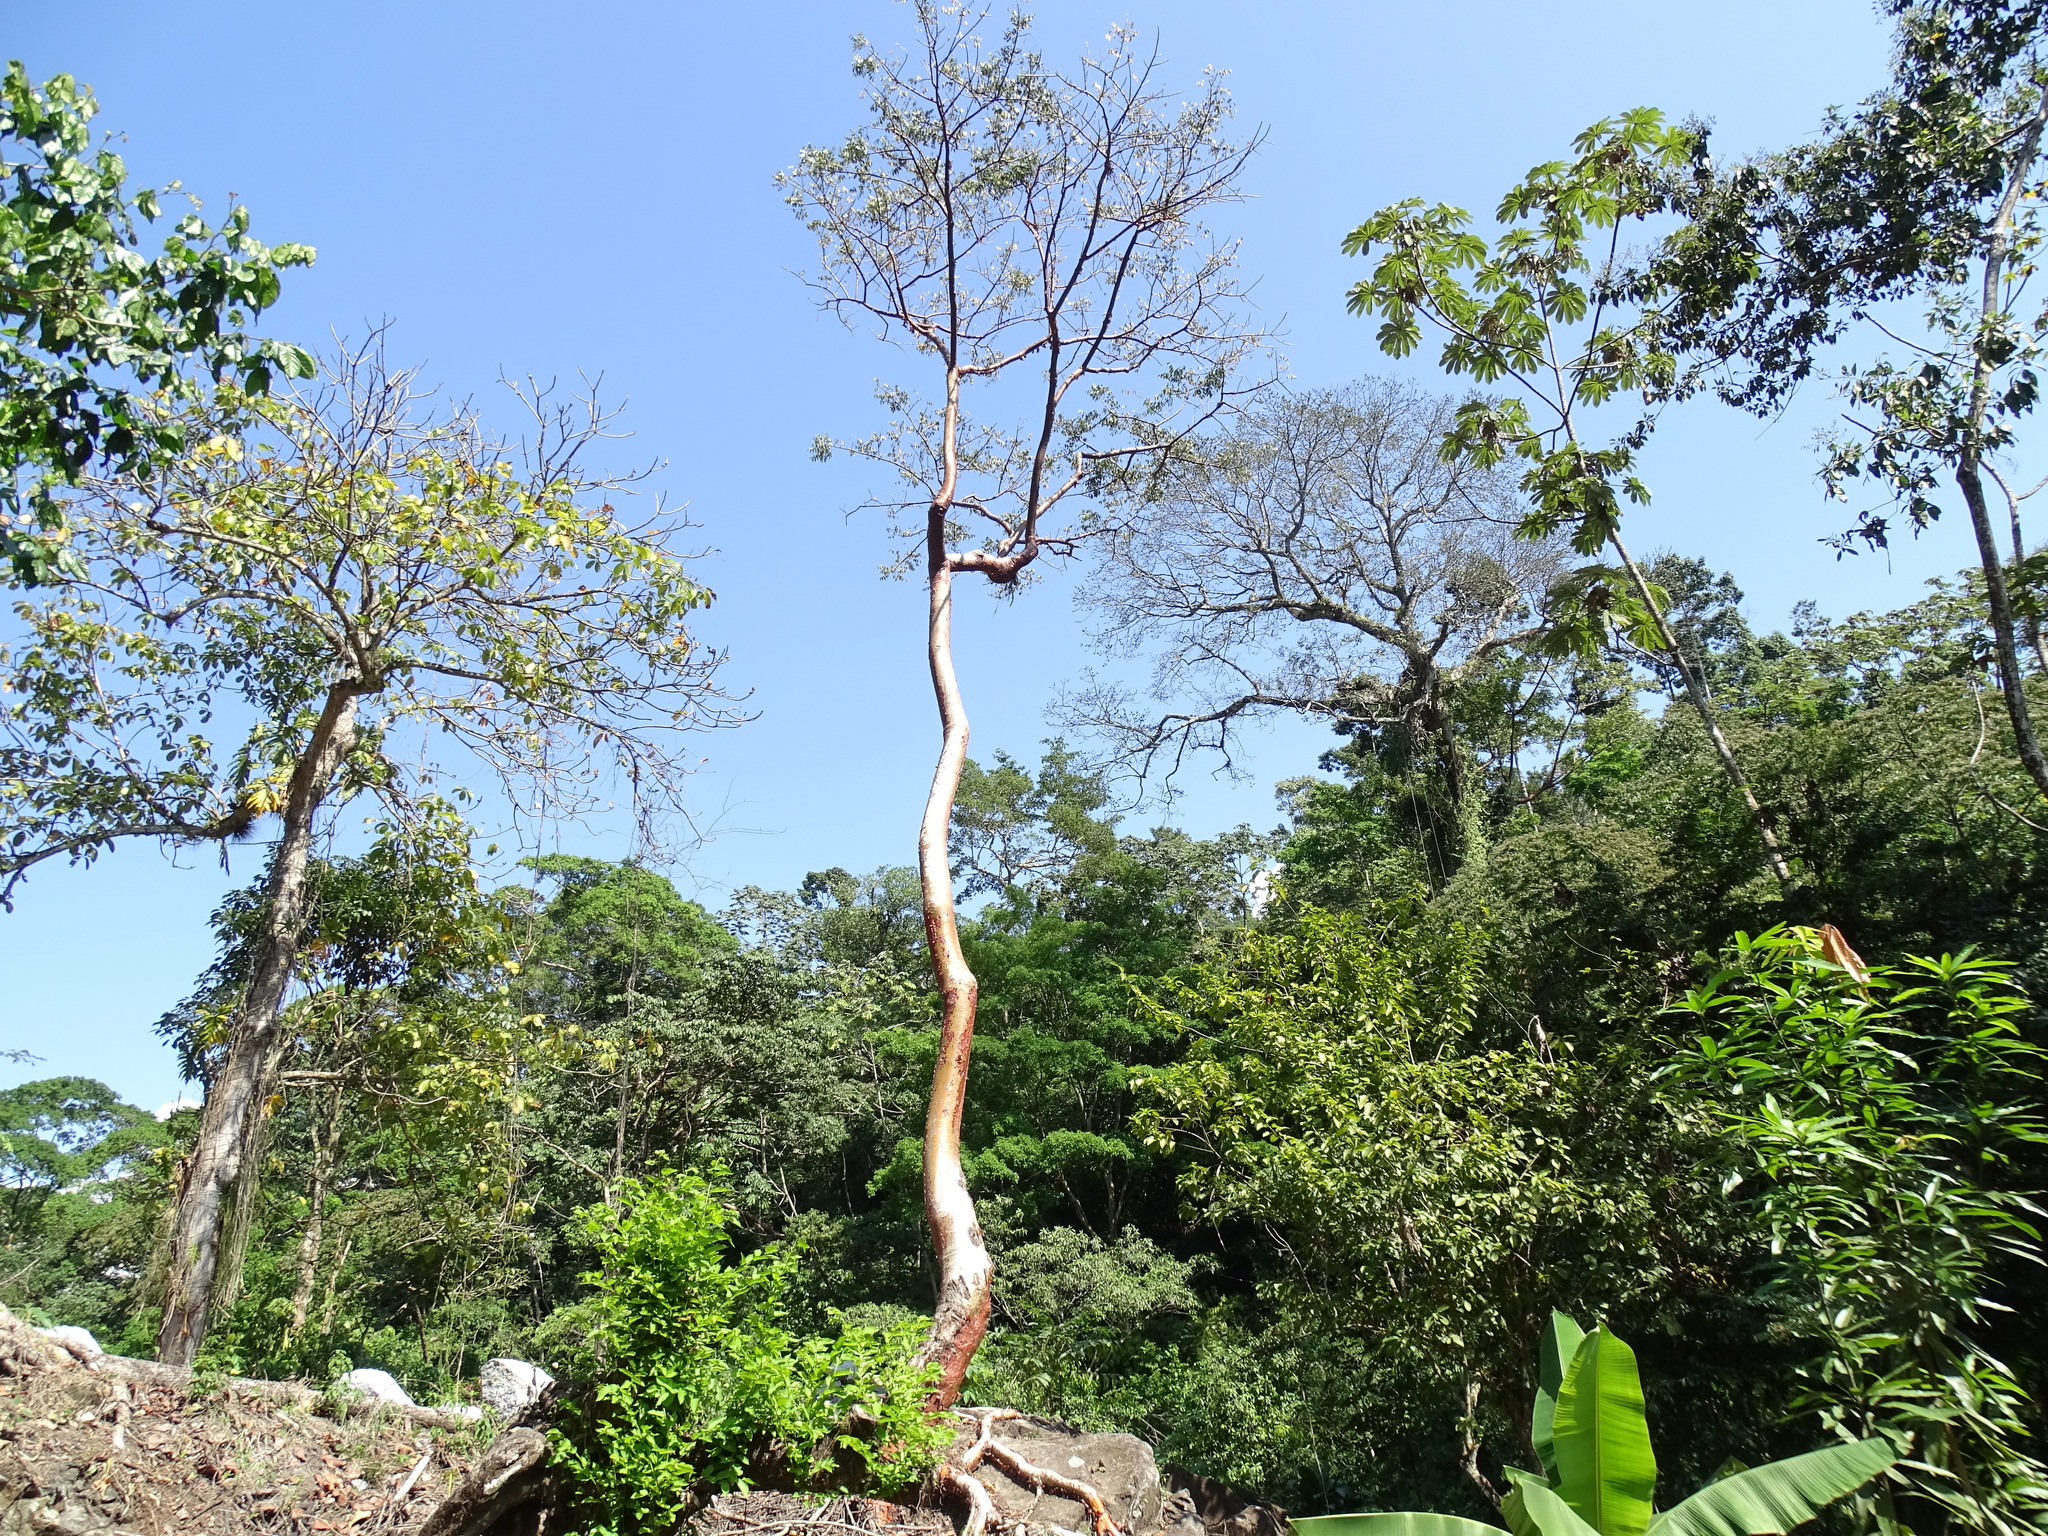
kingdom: Plantae
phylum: Tracheophyta
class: Magnoliopsida
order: Sapindales
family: Burseraceae
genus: Bursera
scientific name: Bursera simaruba
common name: Turpentine tree
